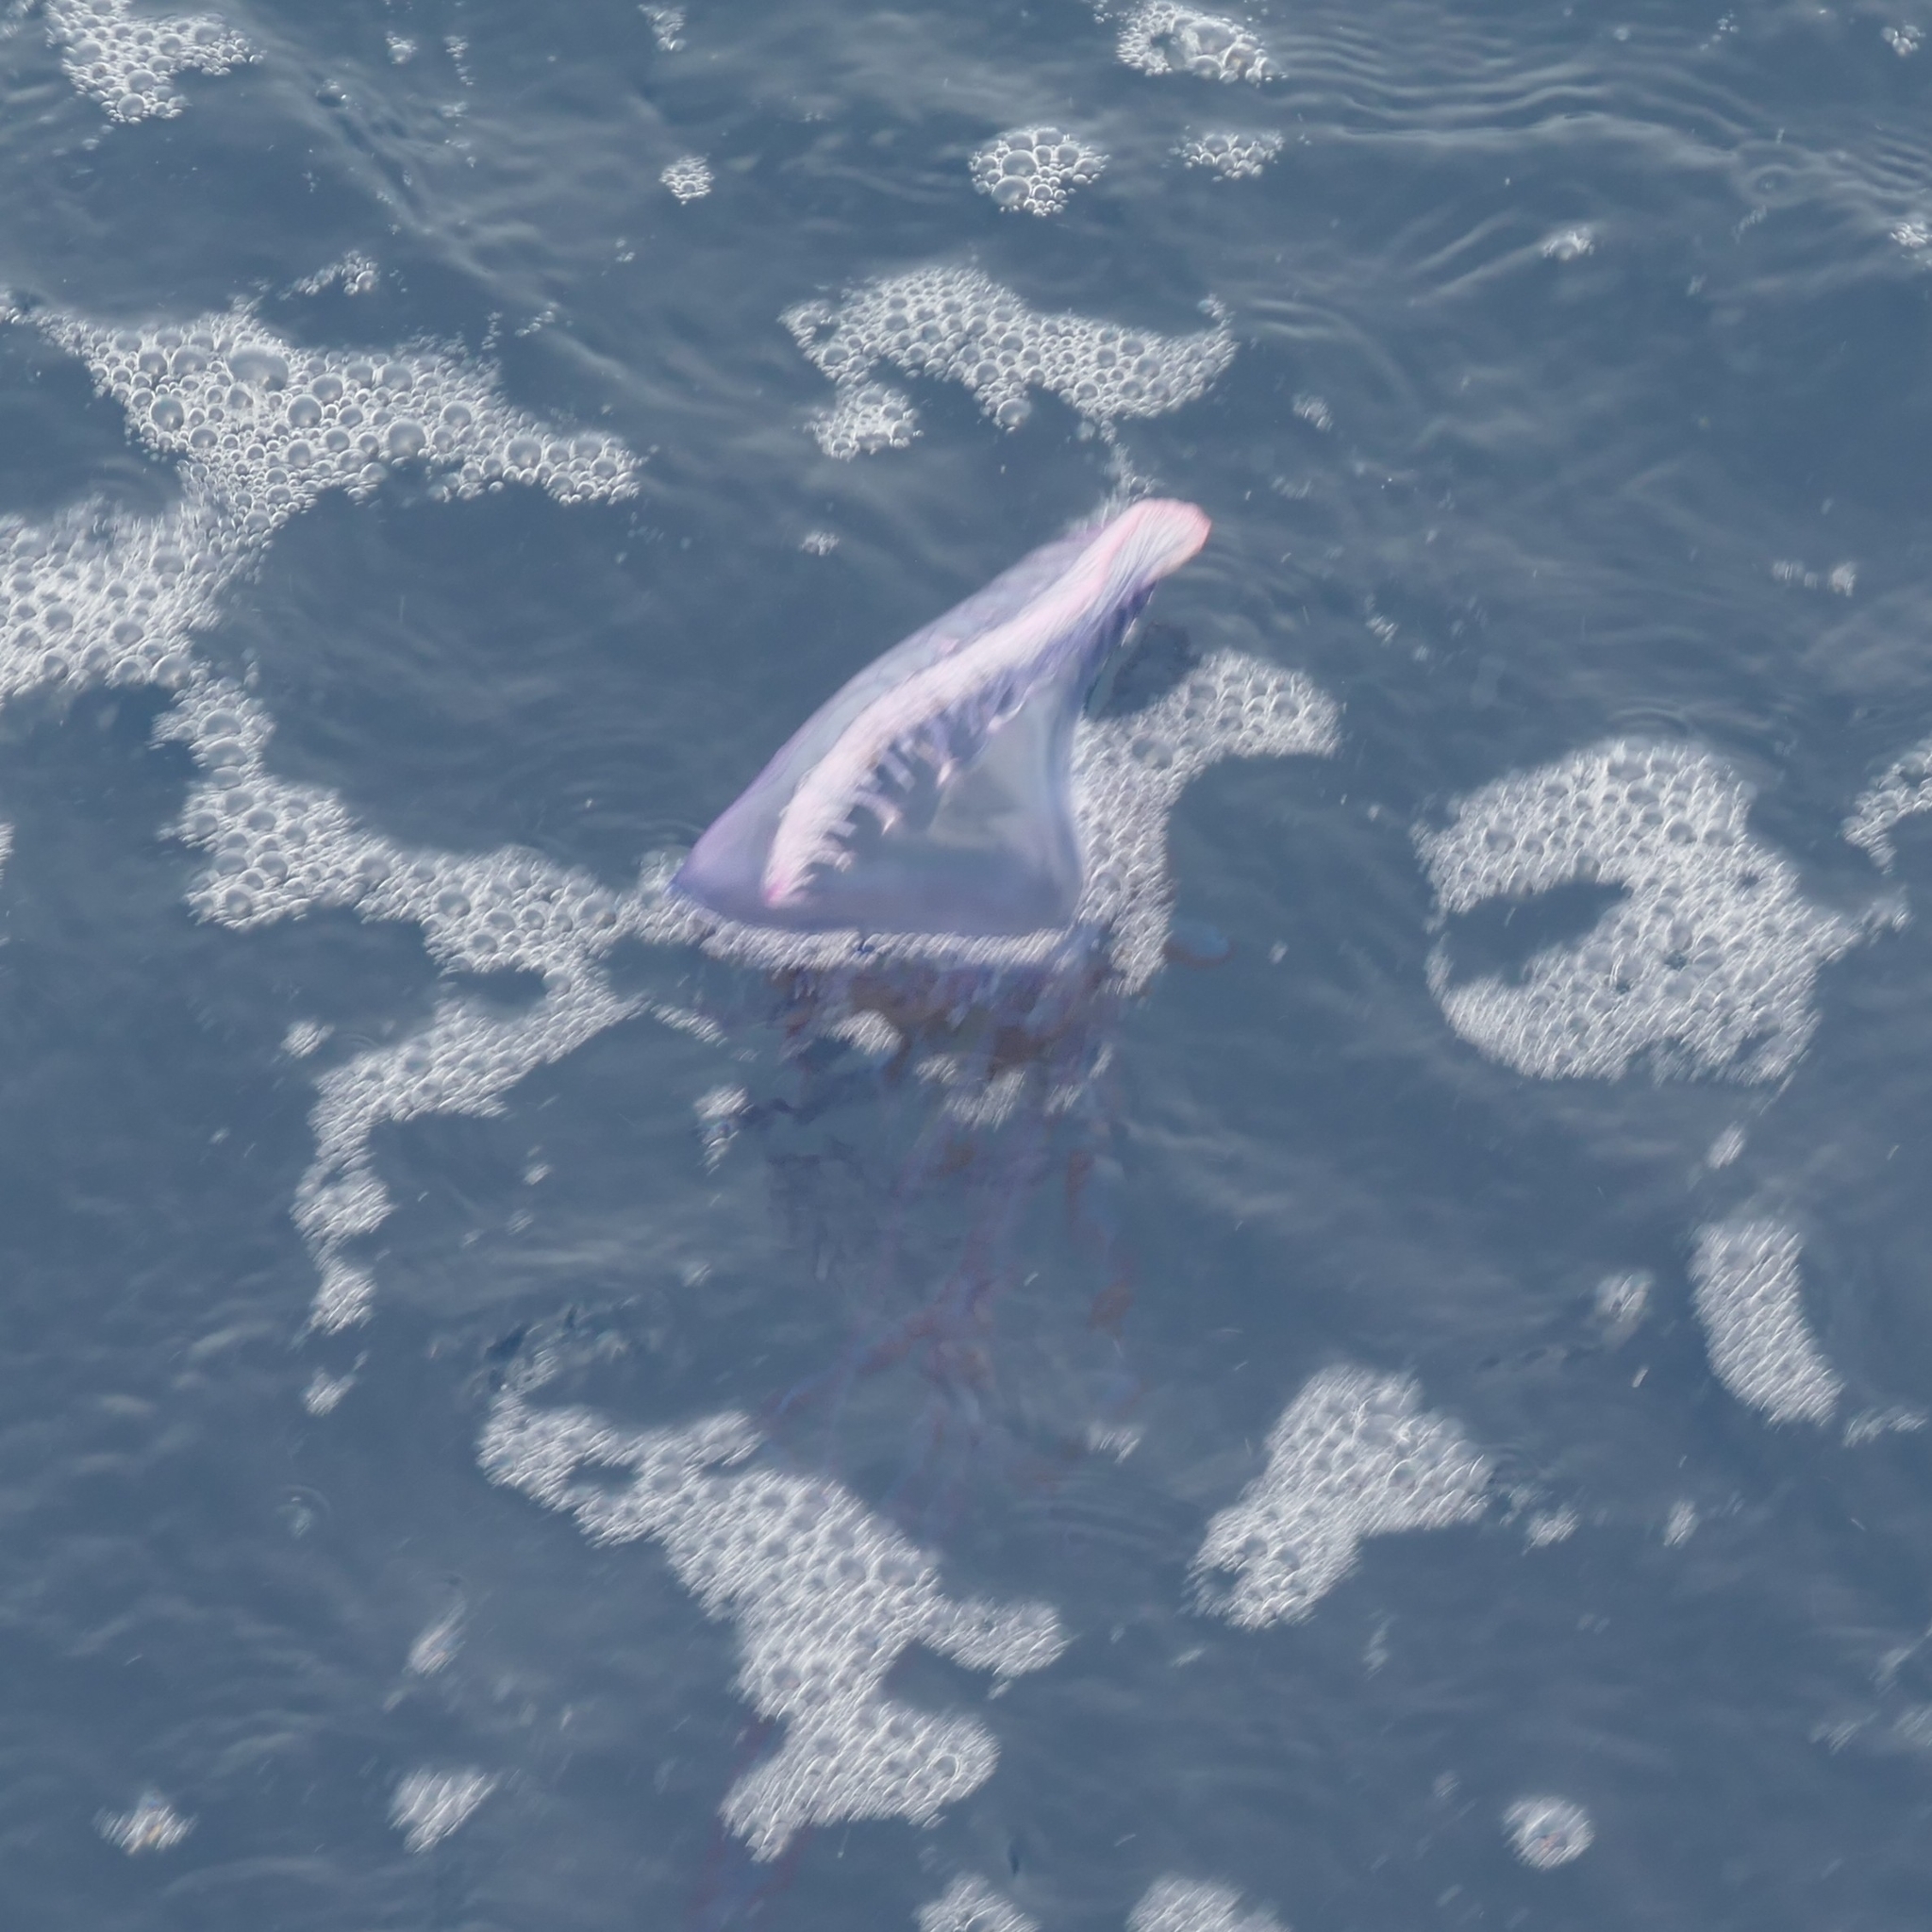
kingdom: Animalia
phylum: Cnidaria
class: Hydrozoa
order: Siphonophorae
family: Physaliidae
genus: Physalia
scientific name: Physalia physalis
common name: Portuguese man-of-war
